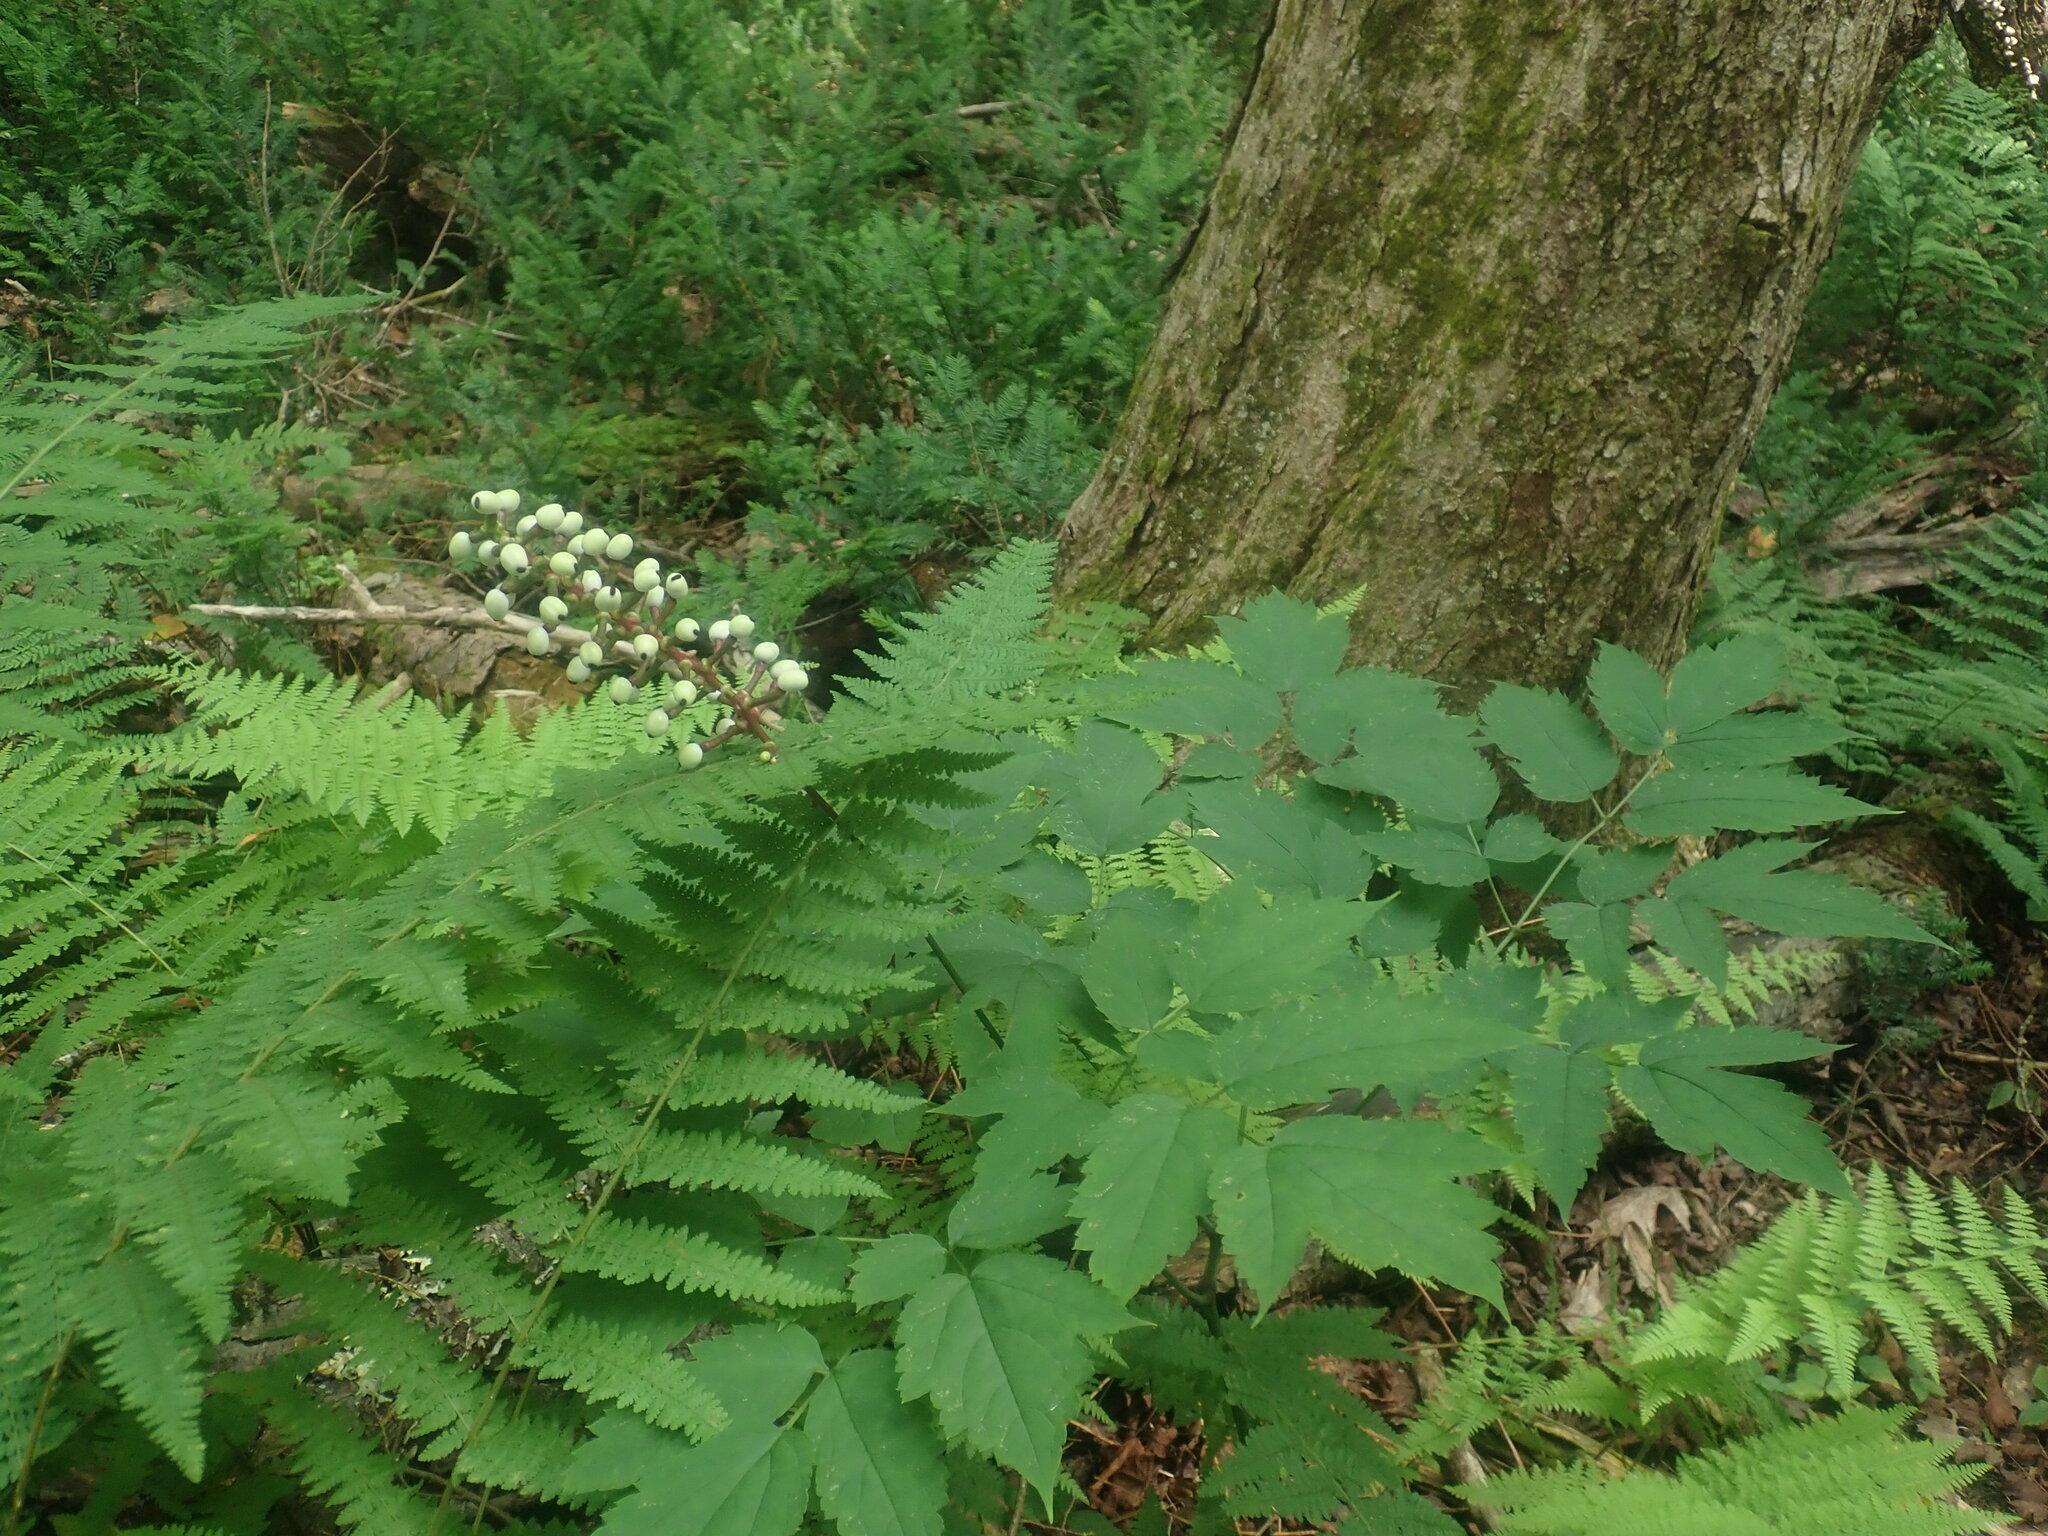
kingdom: Plantae
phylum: Tracheophyta
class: Magnoliopsida
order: Ranunculales
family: Ranunculaceae
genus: Actaea
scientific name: Actaea pachypoda
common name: Doll's-eyes
